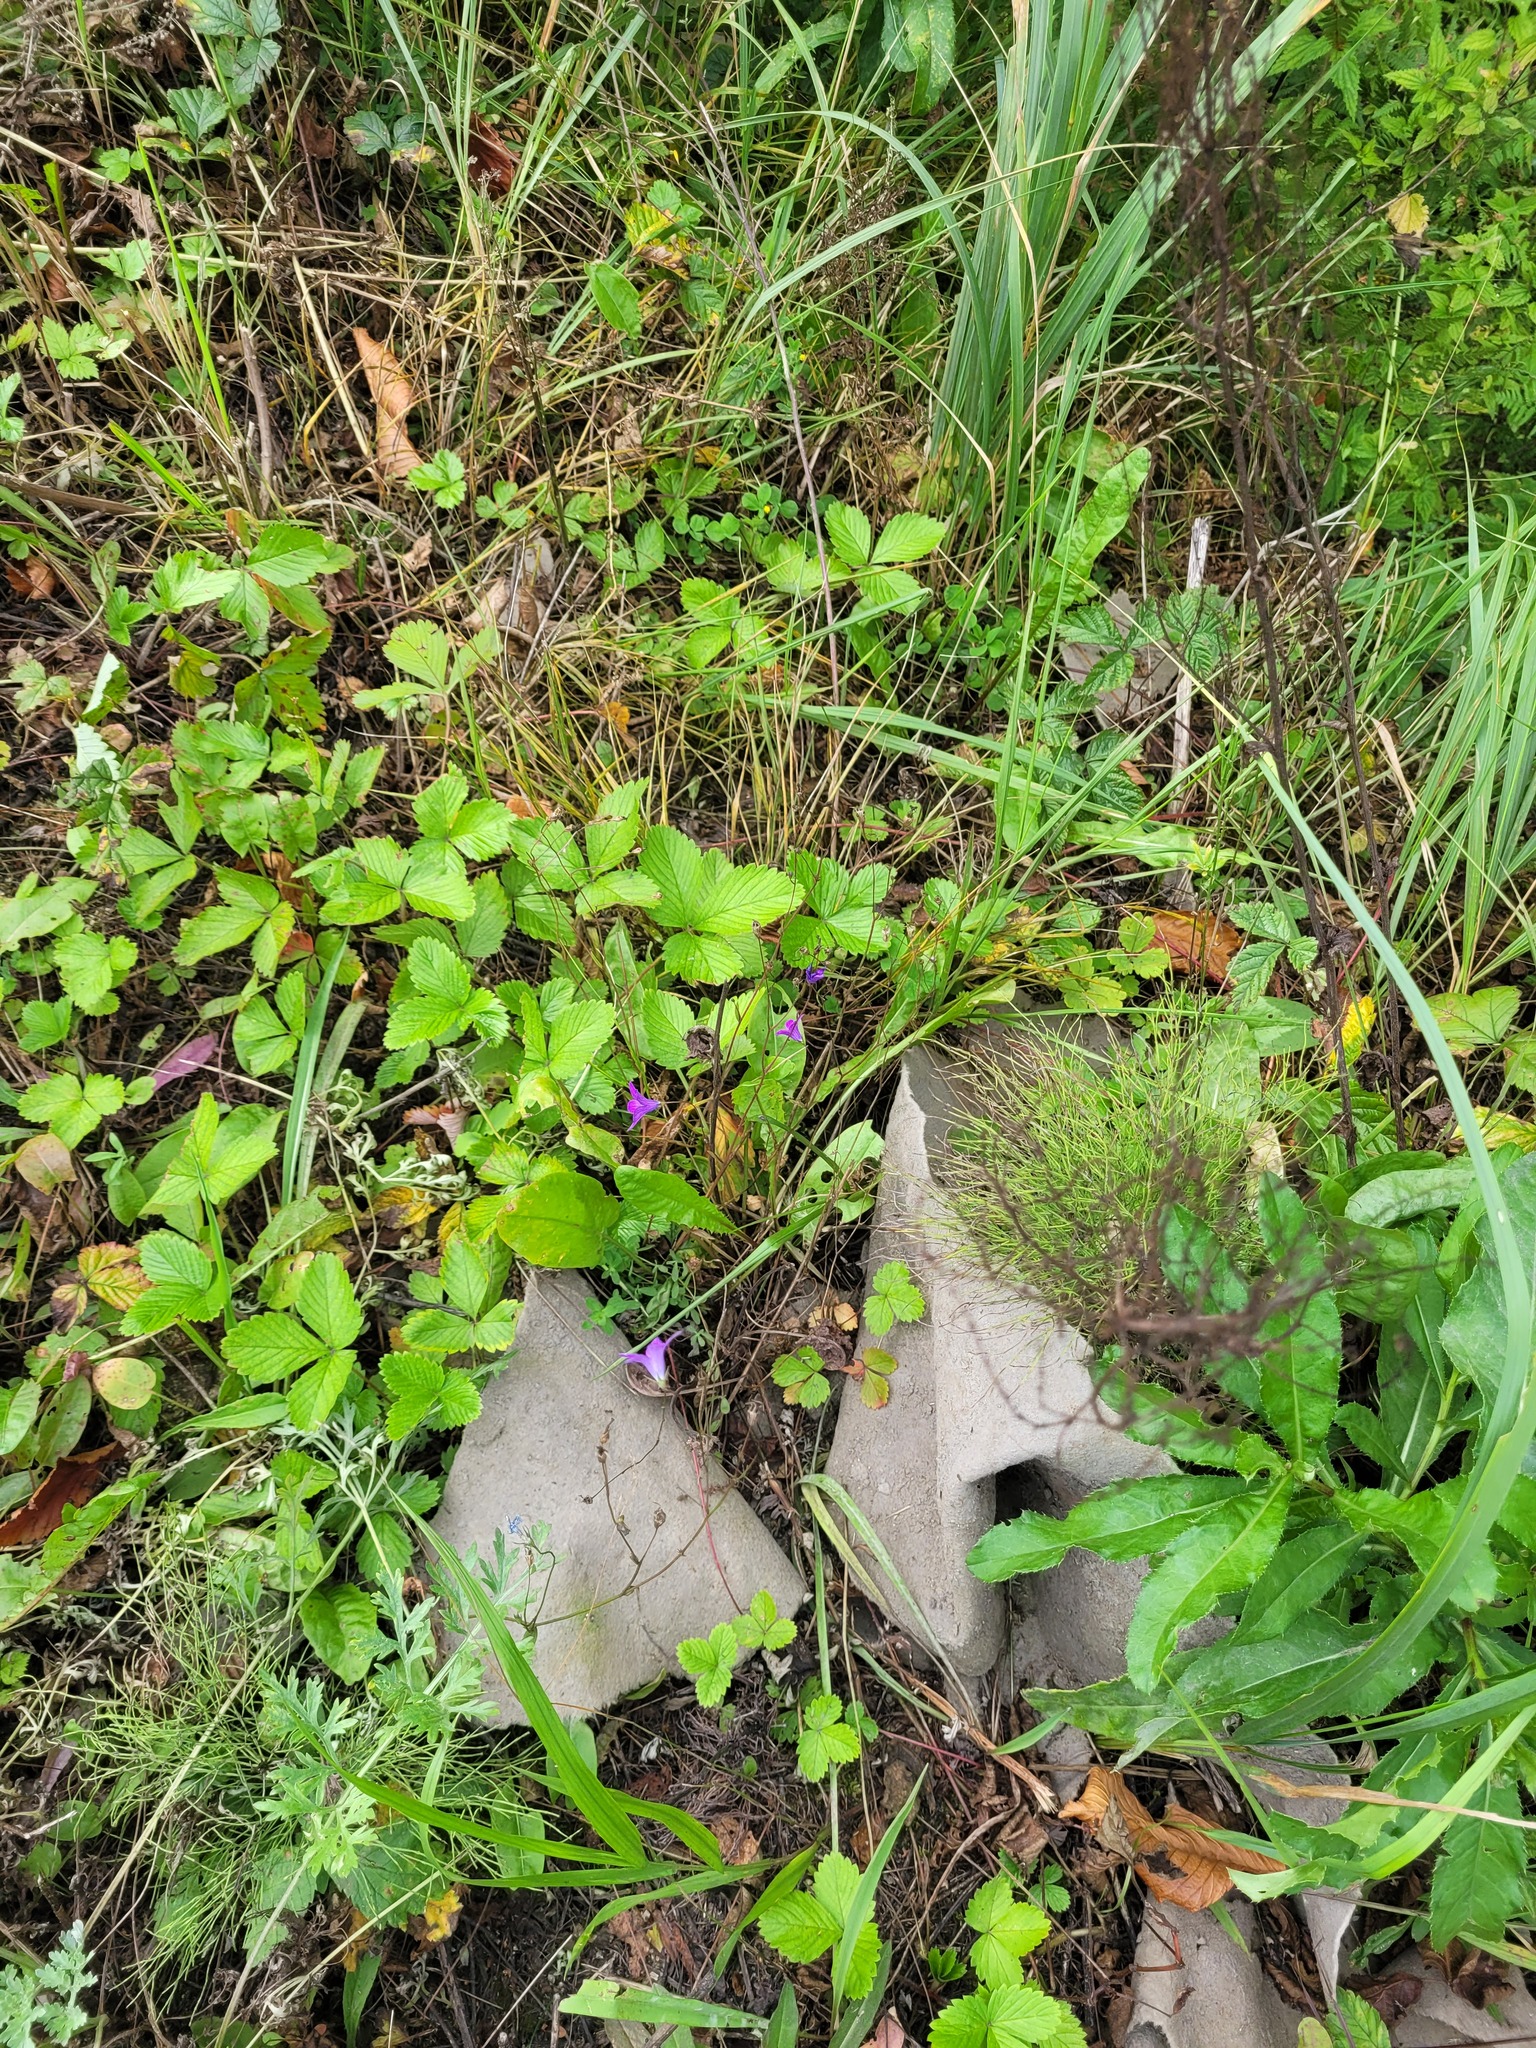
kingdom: Plantae
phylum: Tracheophyta
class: Magnoliopsida
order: Asterales
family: Campanulaceae
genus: Campanula
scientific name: Campanula patula
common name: Spreading bellflower
